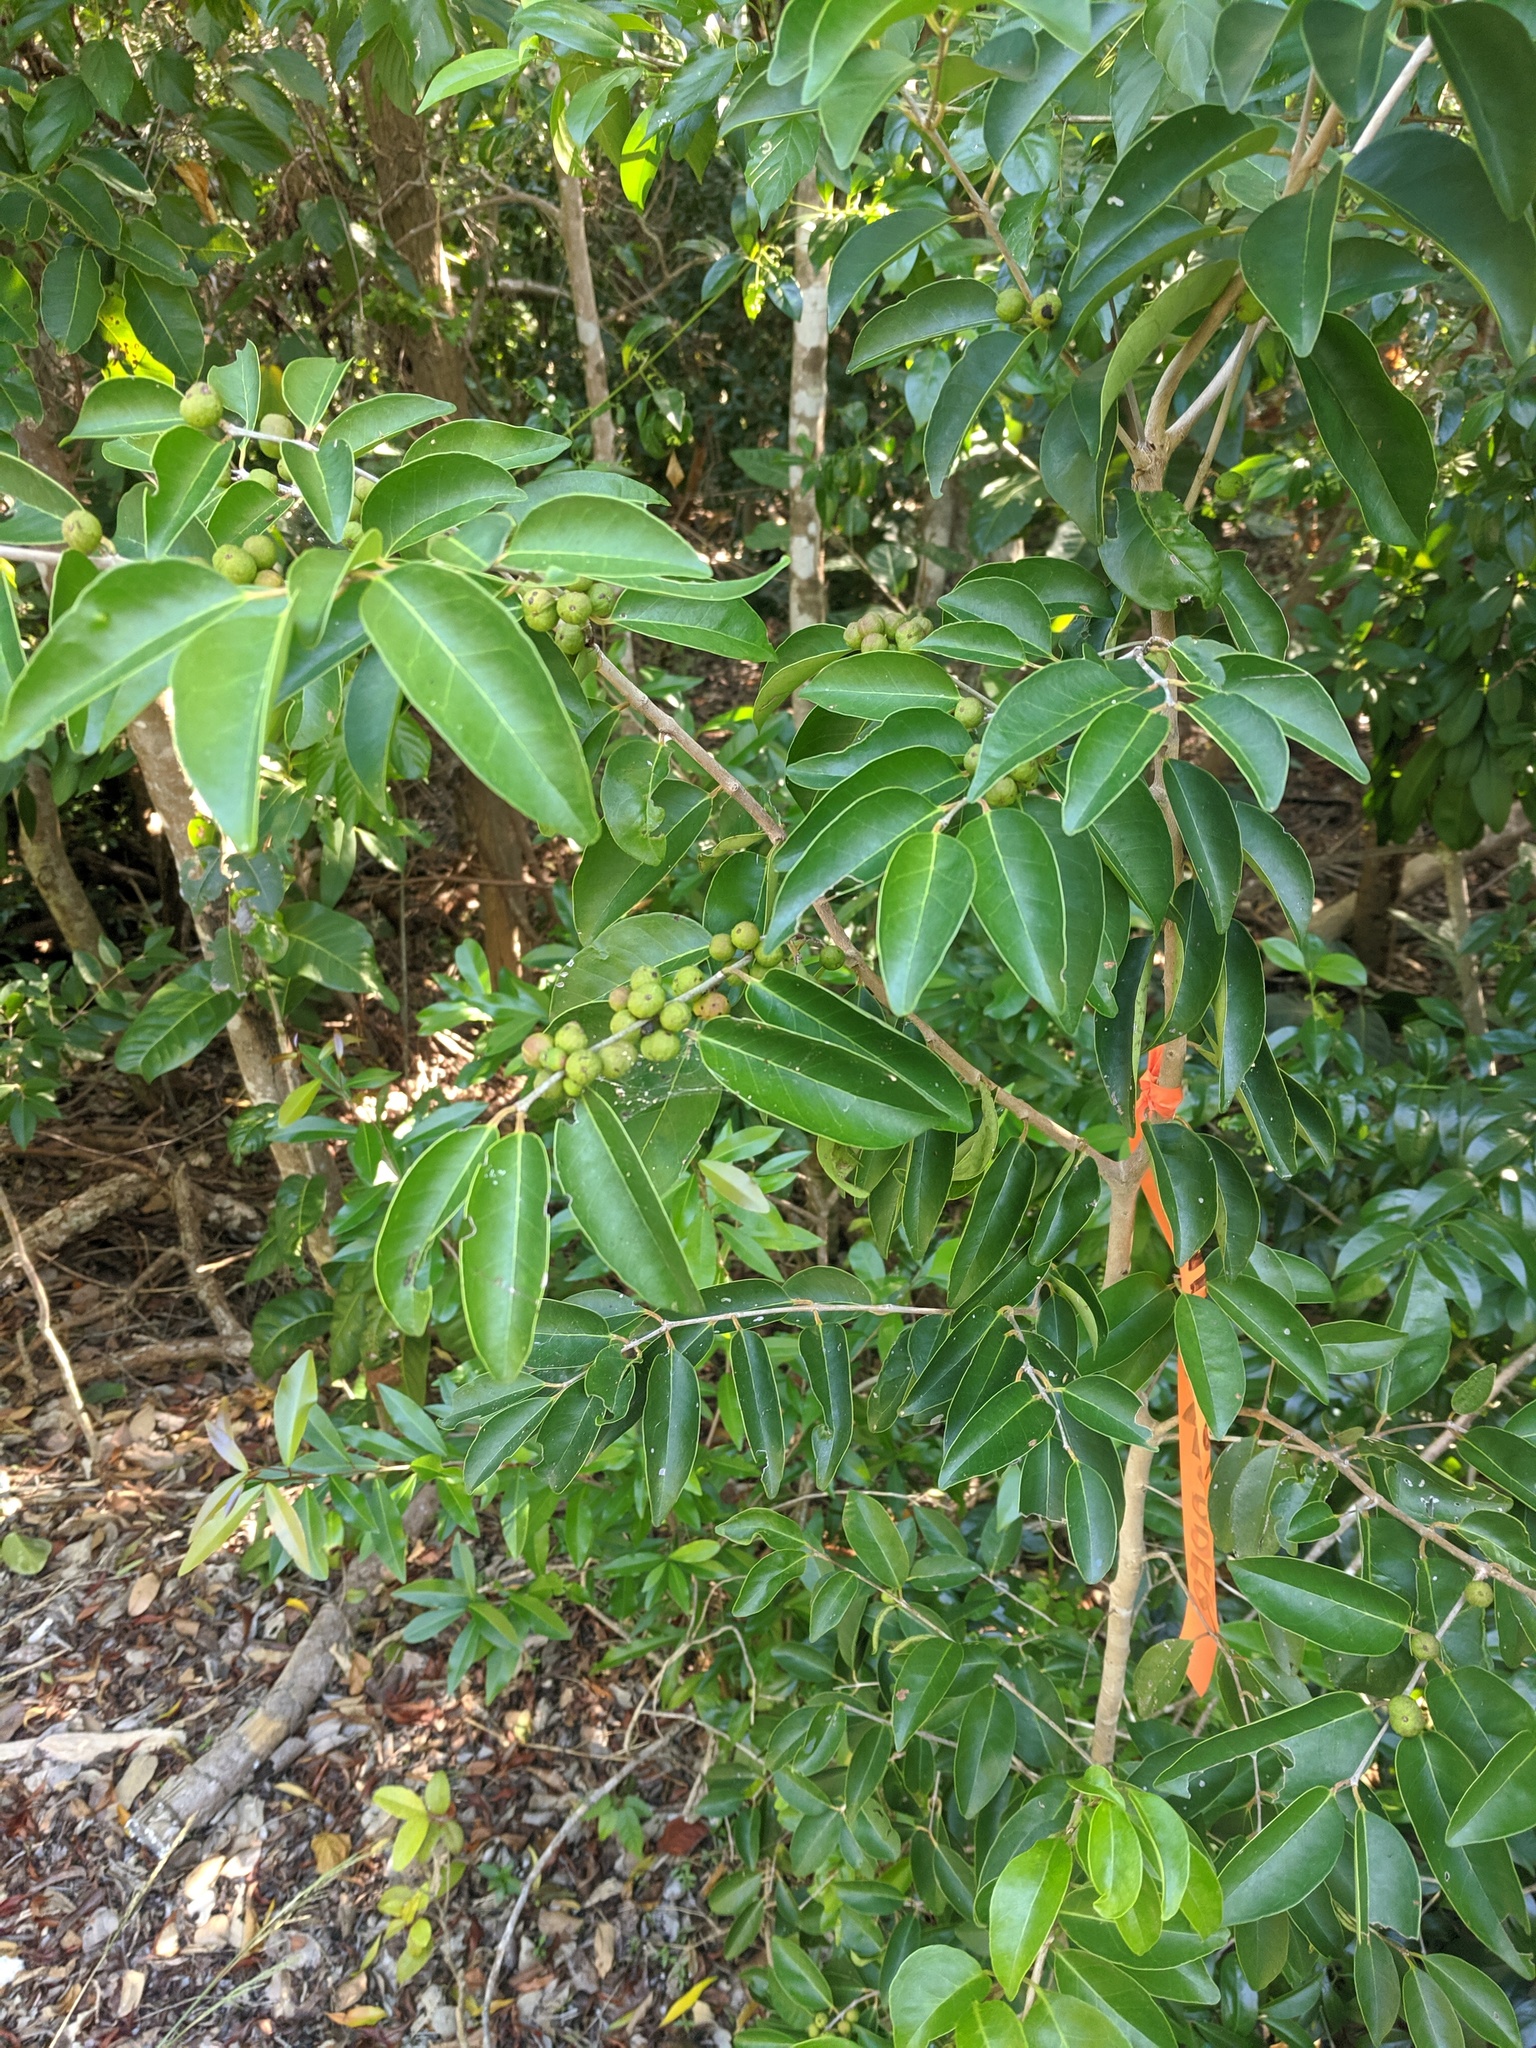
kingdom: Plantae
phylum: Tracheophyta
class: Magnoliopsida
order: Myrtales
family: Myrtaceae
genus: Eugenia
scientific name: Eugenia axillaris
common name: Choaky berry
